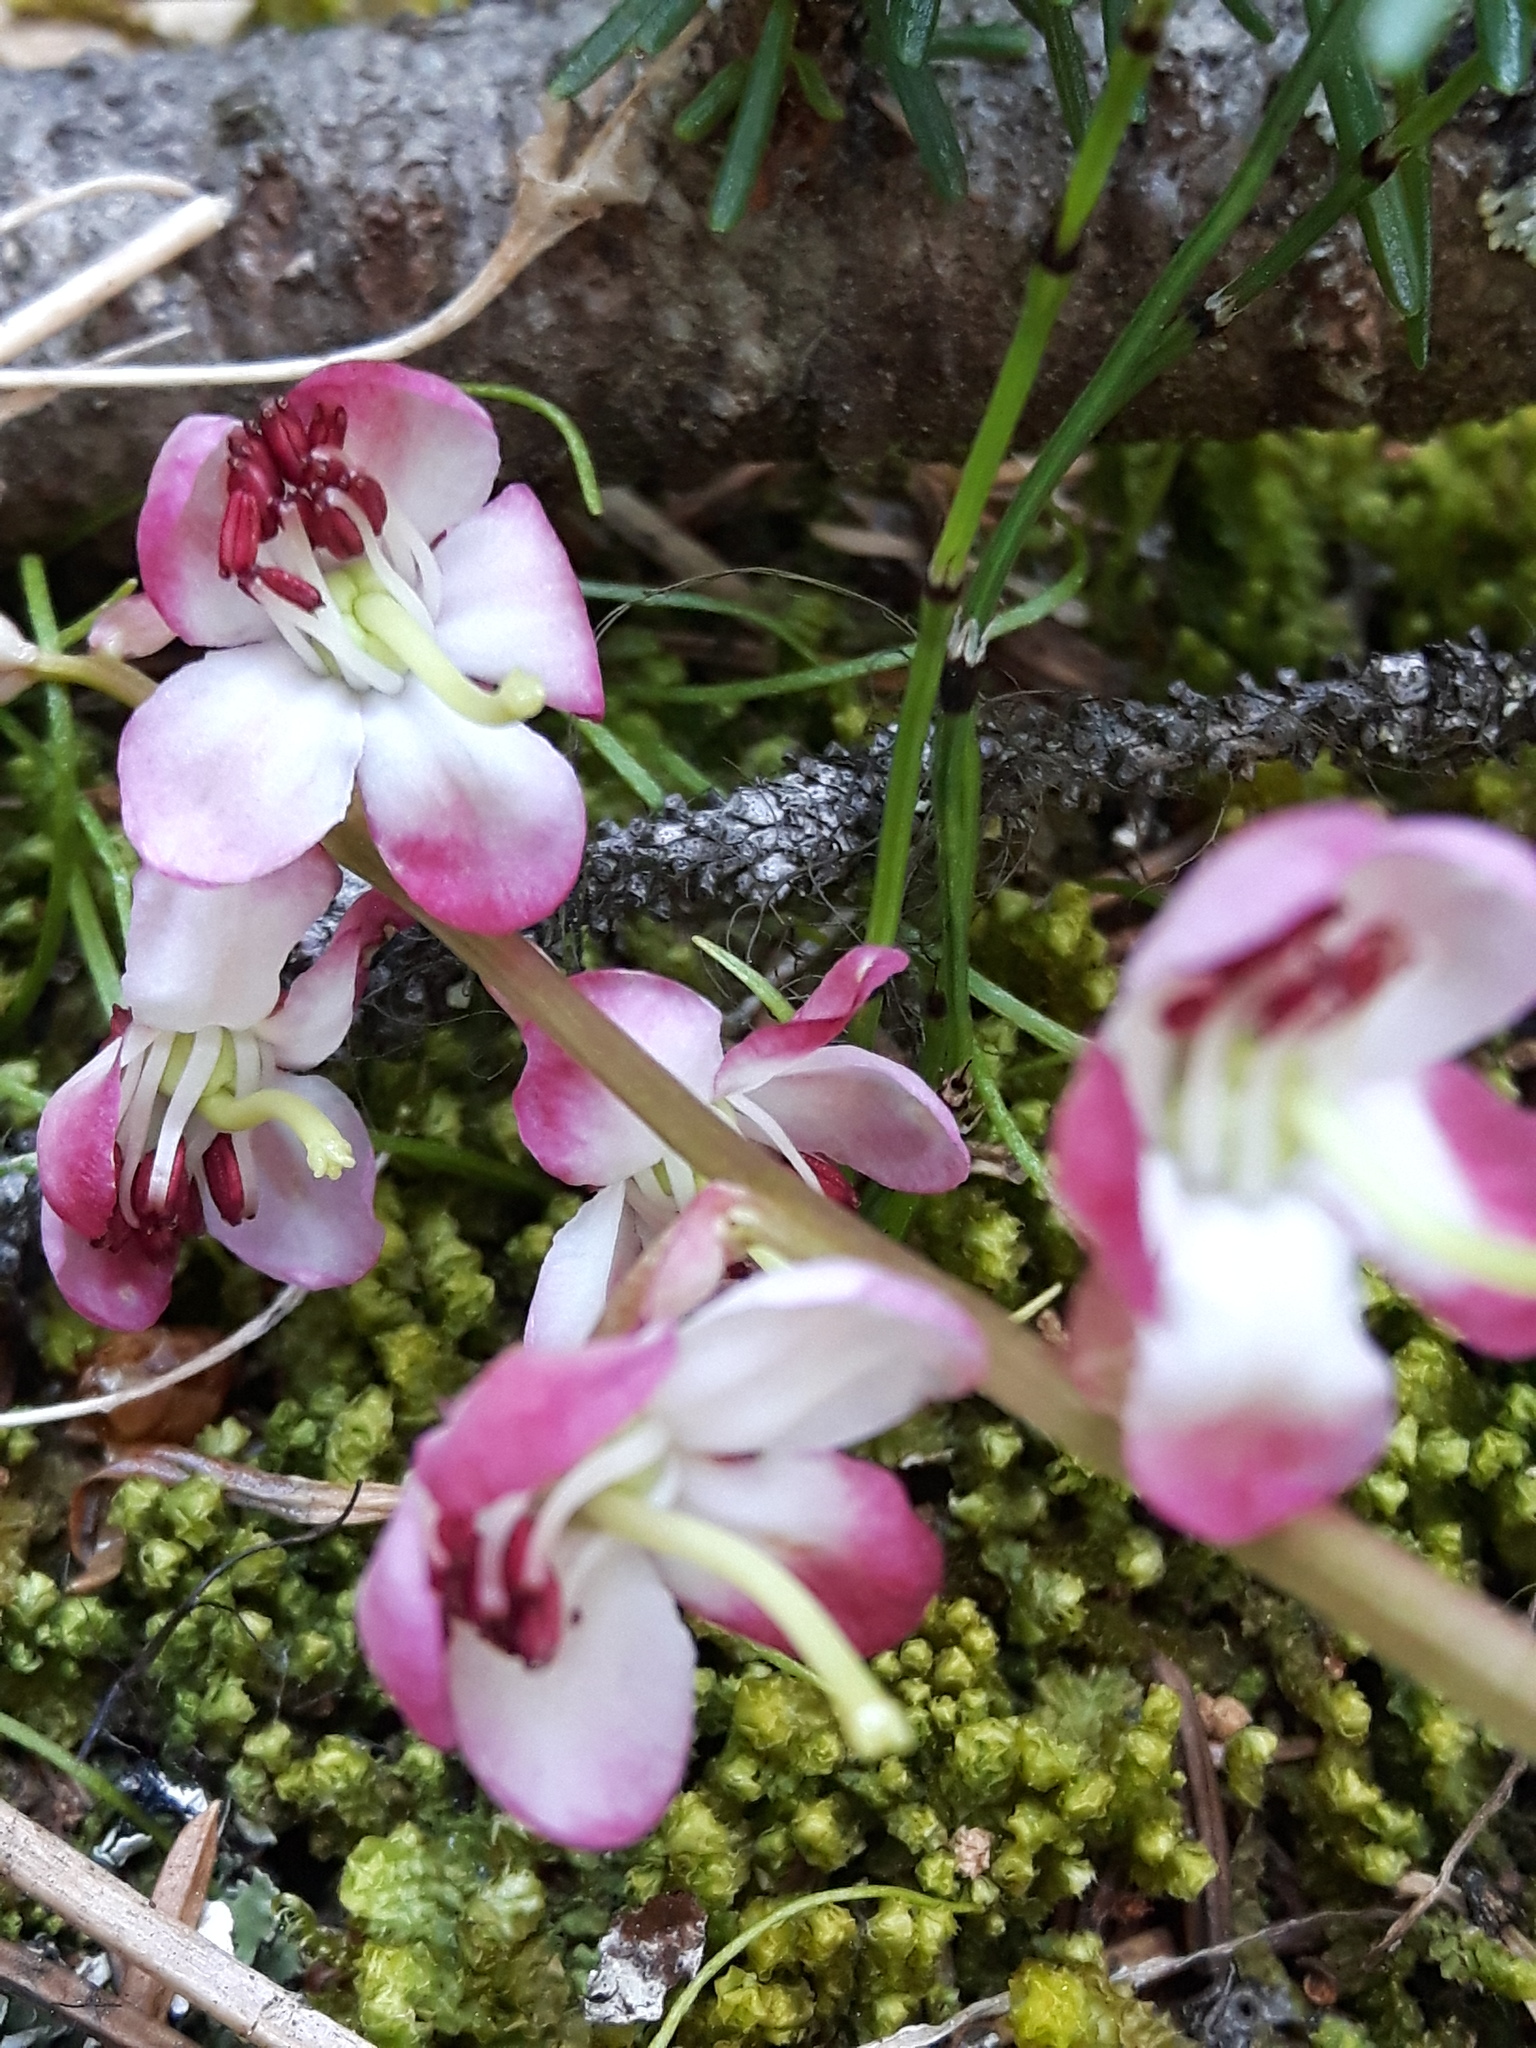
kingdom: Plantae
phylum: Tracheophyta
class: Magnoliopsida
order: Ericales
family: Ericaceae
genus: Pyrola
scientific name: Pyrola asarifolia
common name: Bog wintergreen
